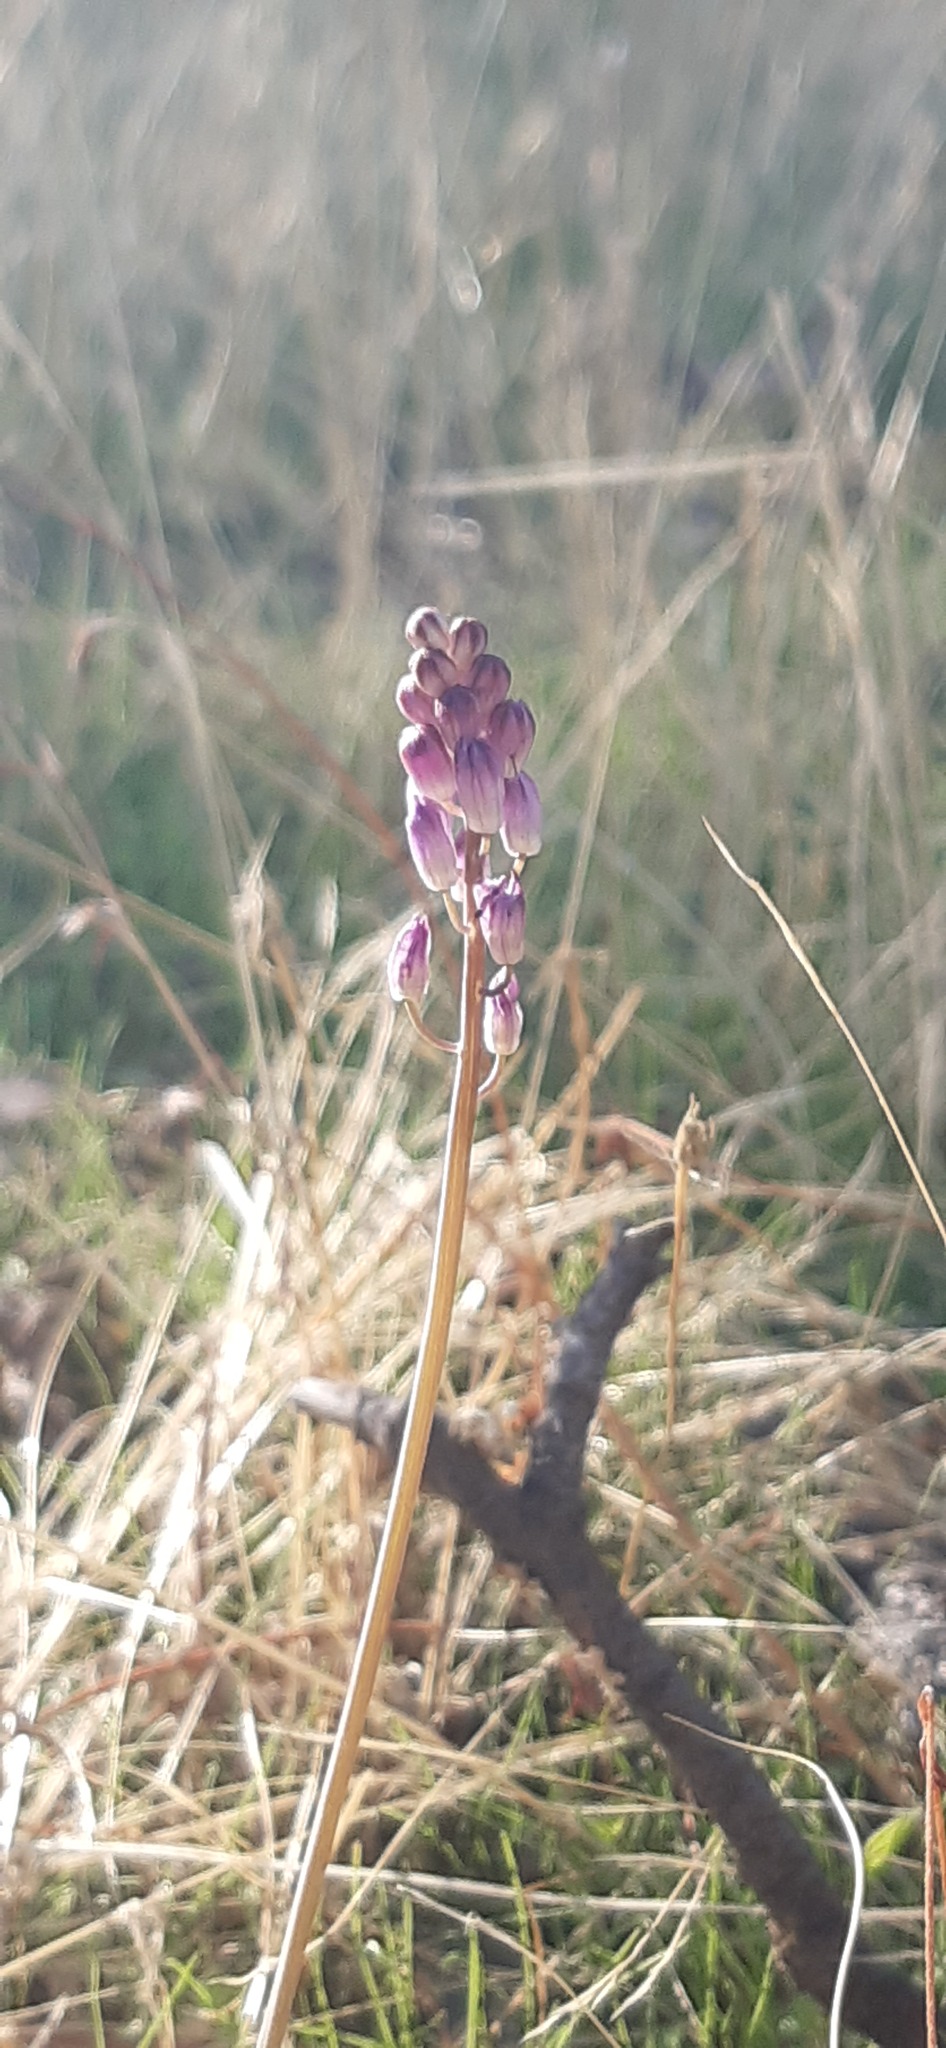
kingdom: Plantae
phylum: Tracheophyta
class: Liliopsida
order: Asparagales
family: Asparagaceae
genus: Prospero
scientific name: Prospero autumnale
